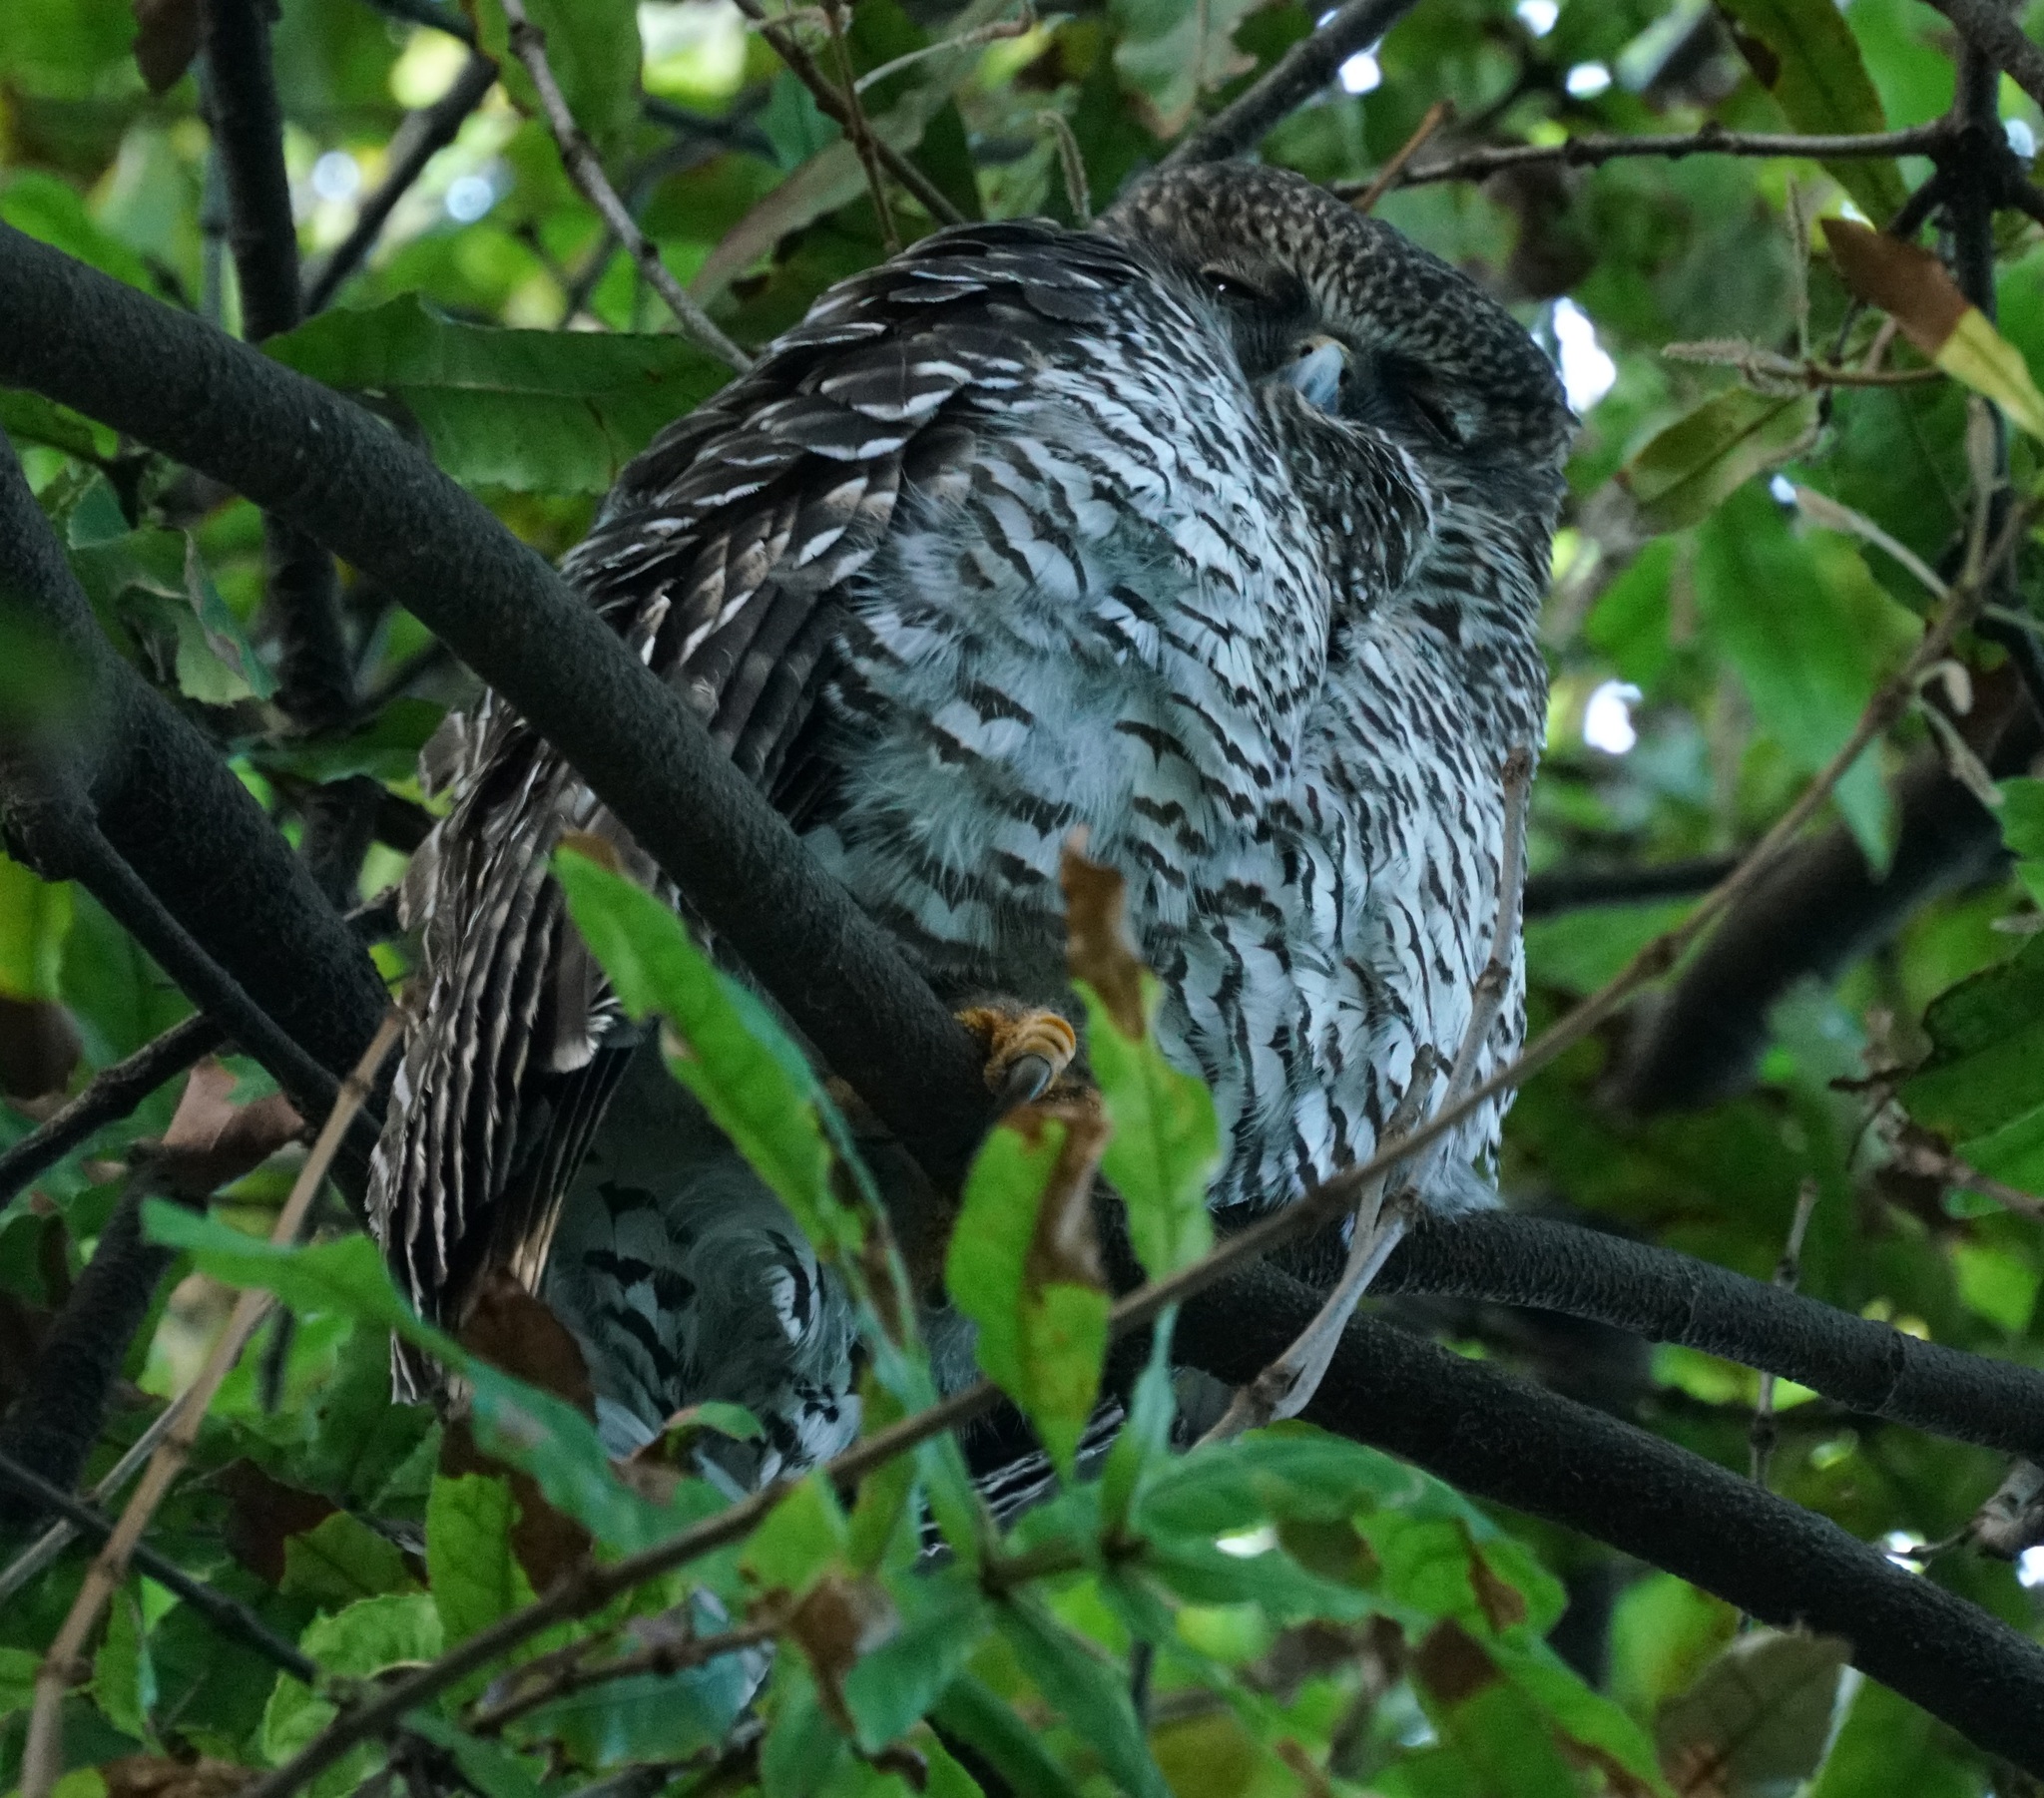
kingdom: Animalia
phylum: Chordata
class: Aves
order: Strigiformes
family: Strigidae
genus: Ninox
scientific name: Ninox strenua
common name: Powerful owl
